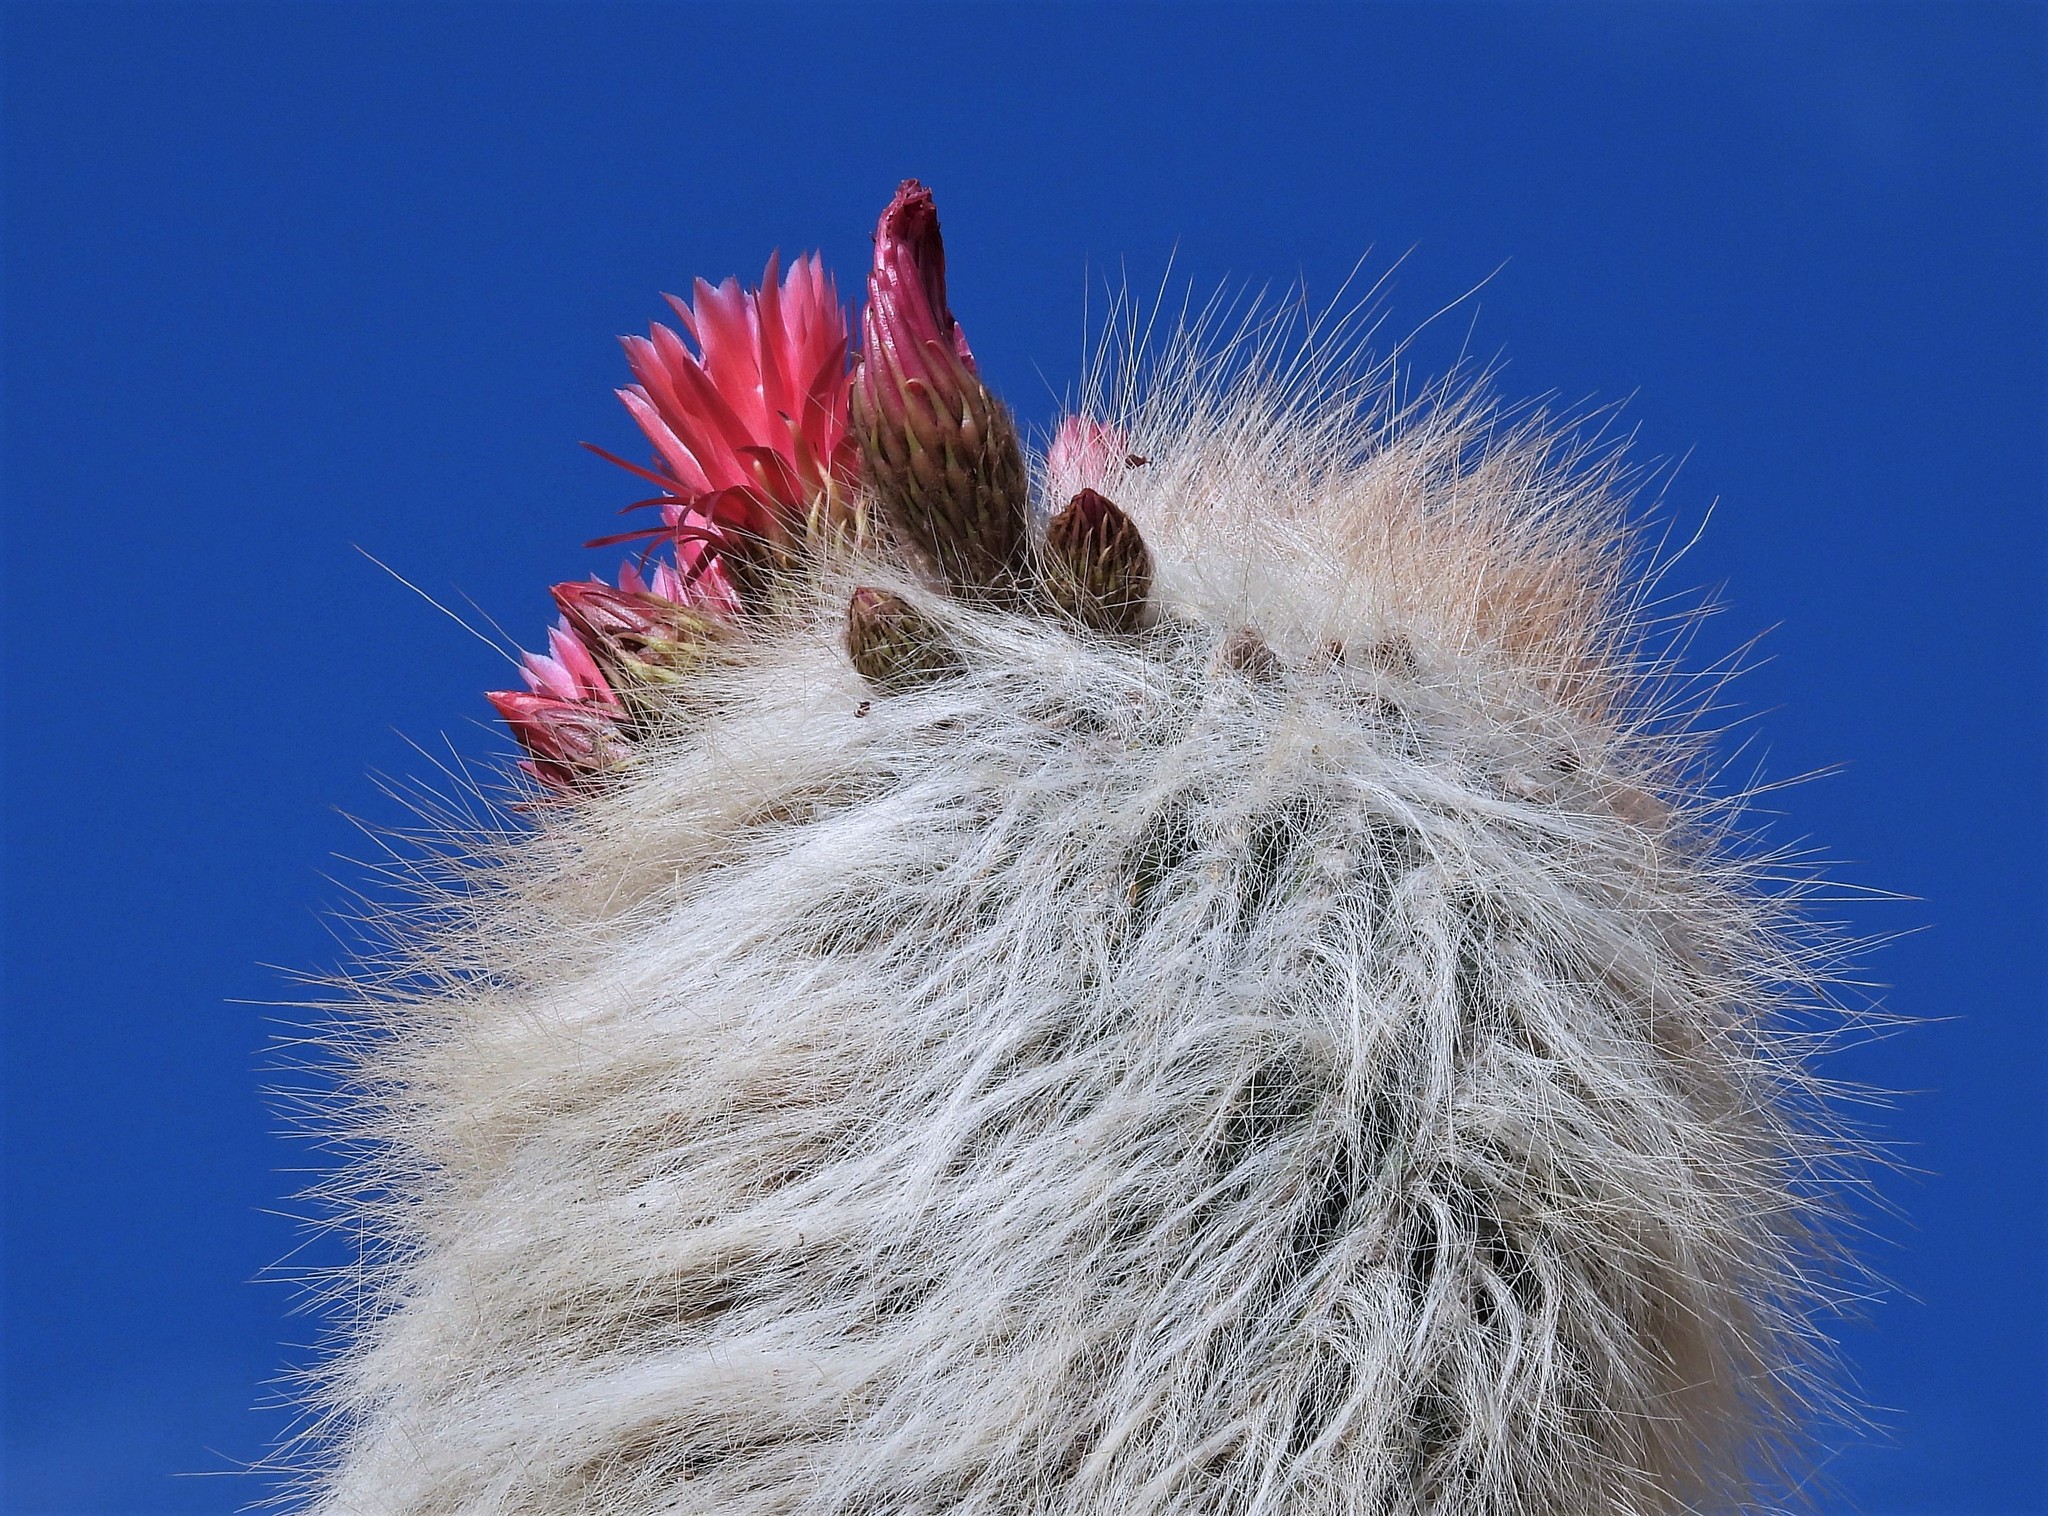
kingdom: Plantae
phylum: Tracheophyta
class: Magnoliopsida
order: Caryophyllales
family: Cactaceae
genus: Soehrensia
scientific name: Soehrensia tarijensis
